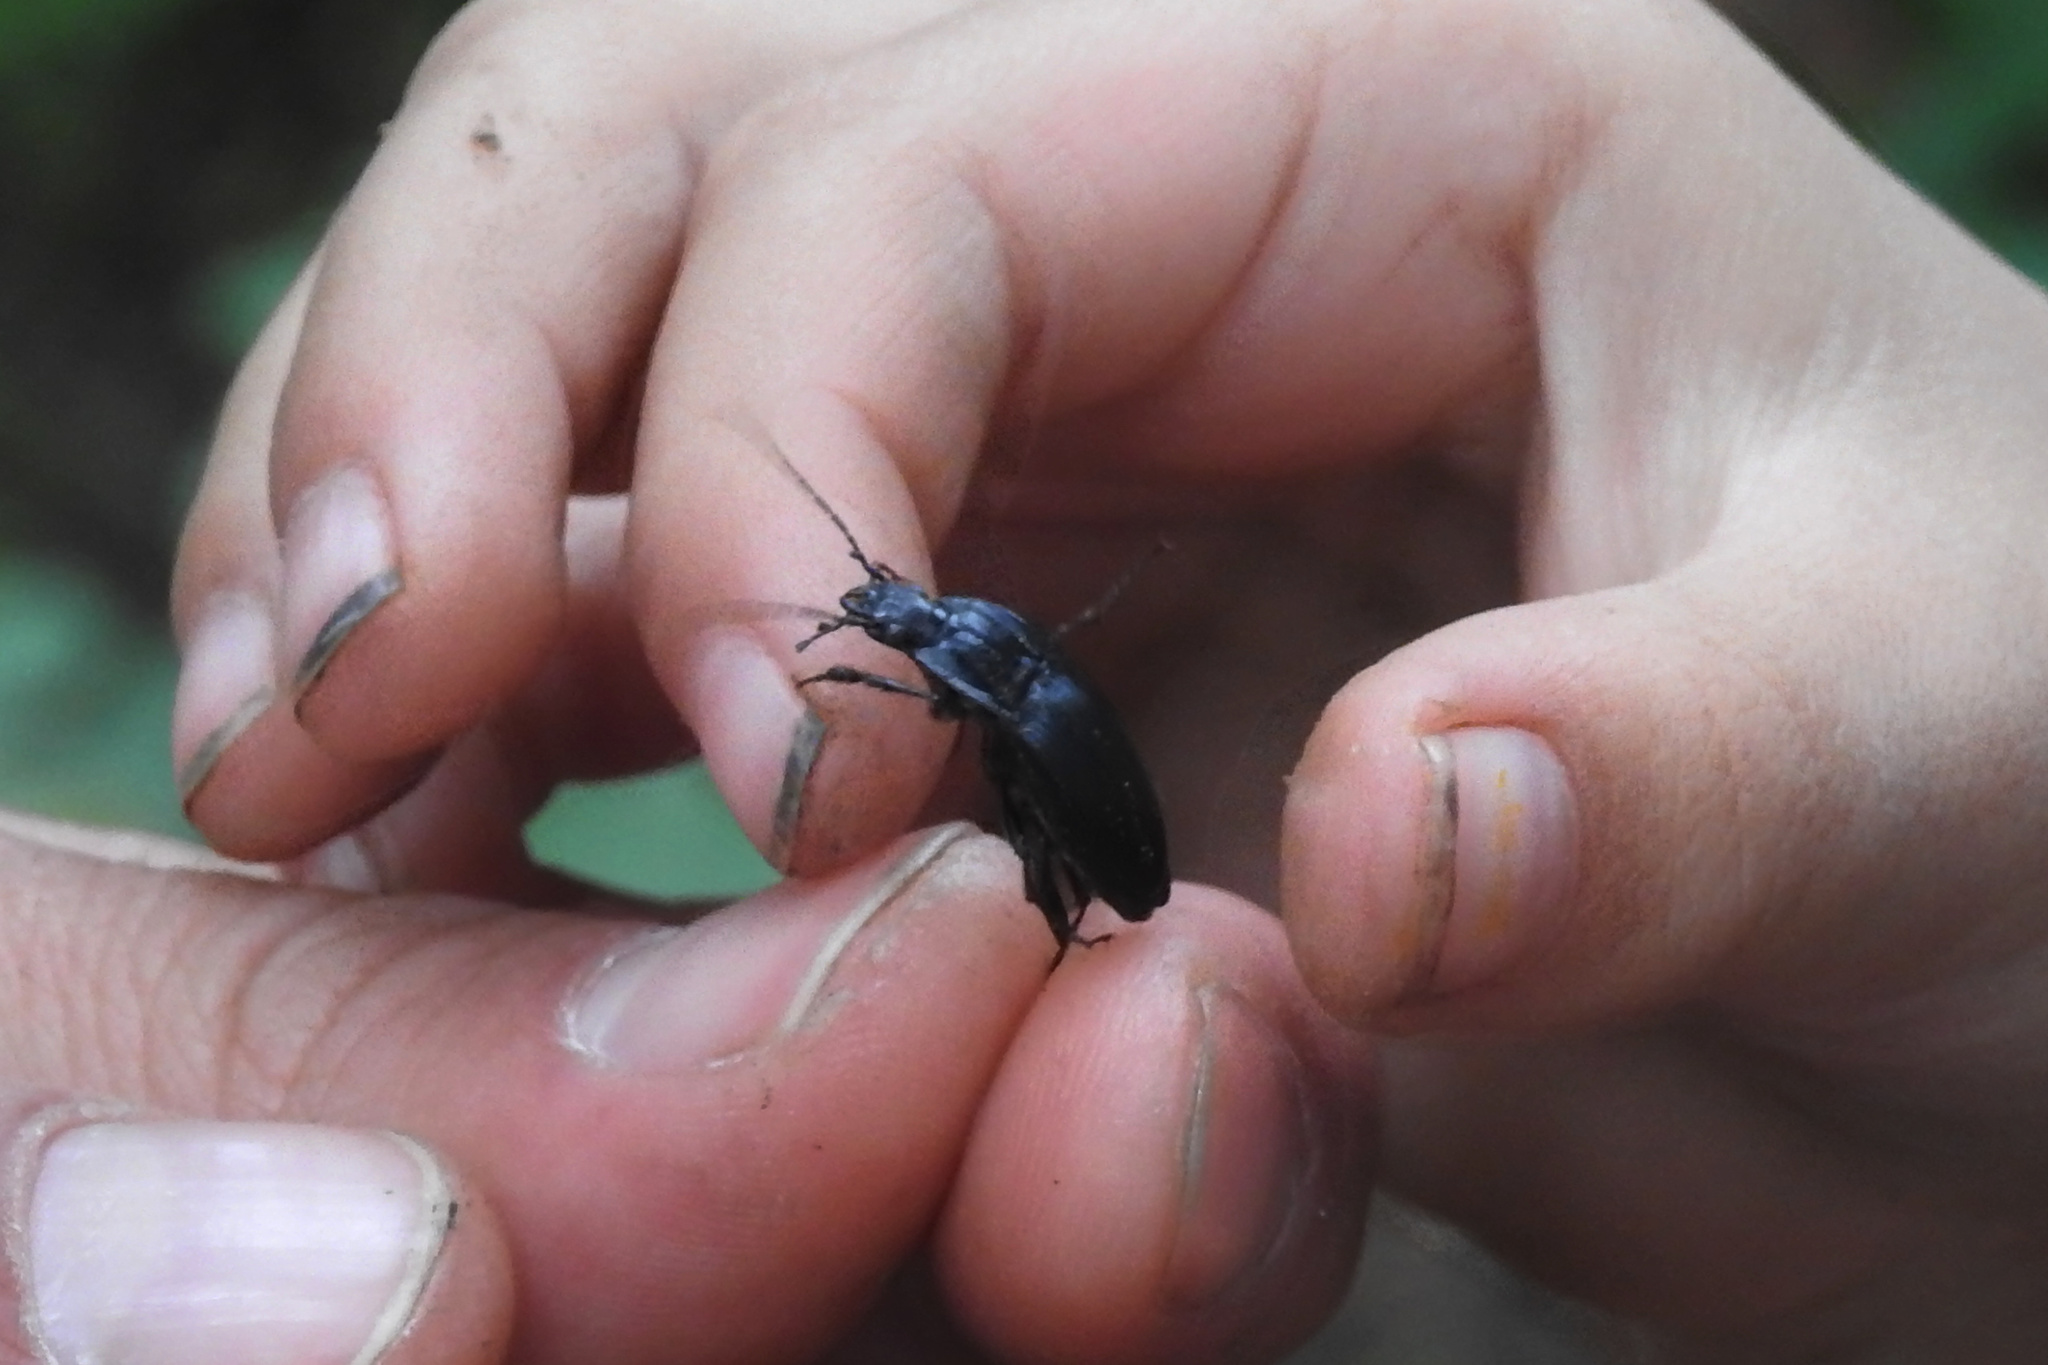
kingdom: Animalia
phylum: Arthropoda
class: Insecta
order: Coleoptera
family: Carabidae
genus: Dicaelus
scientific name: Dicaelus
